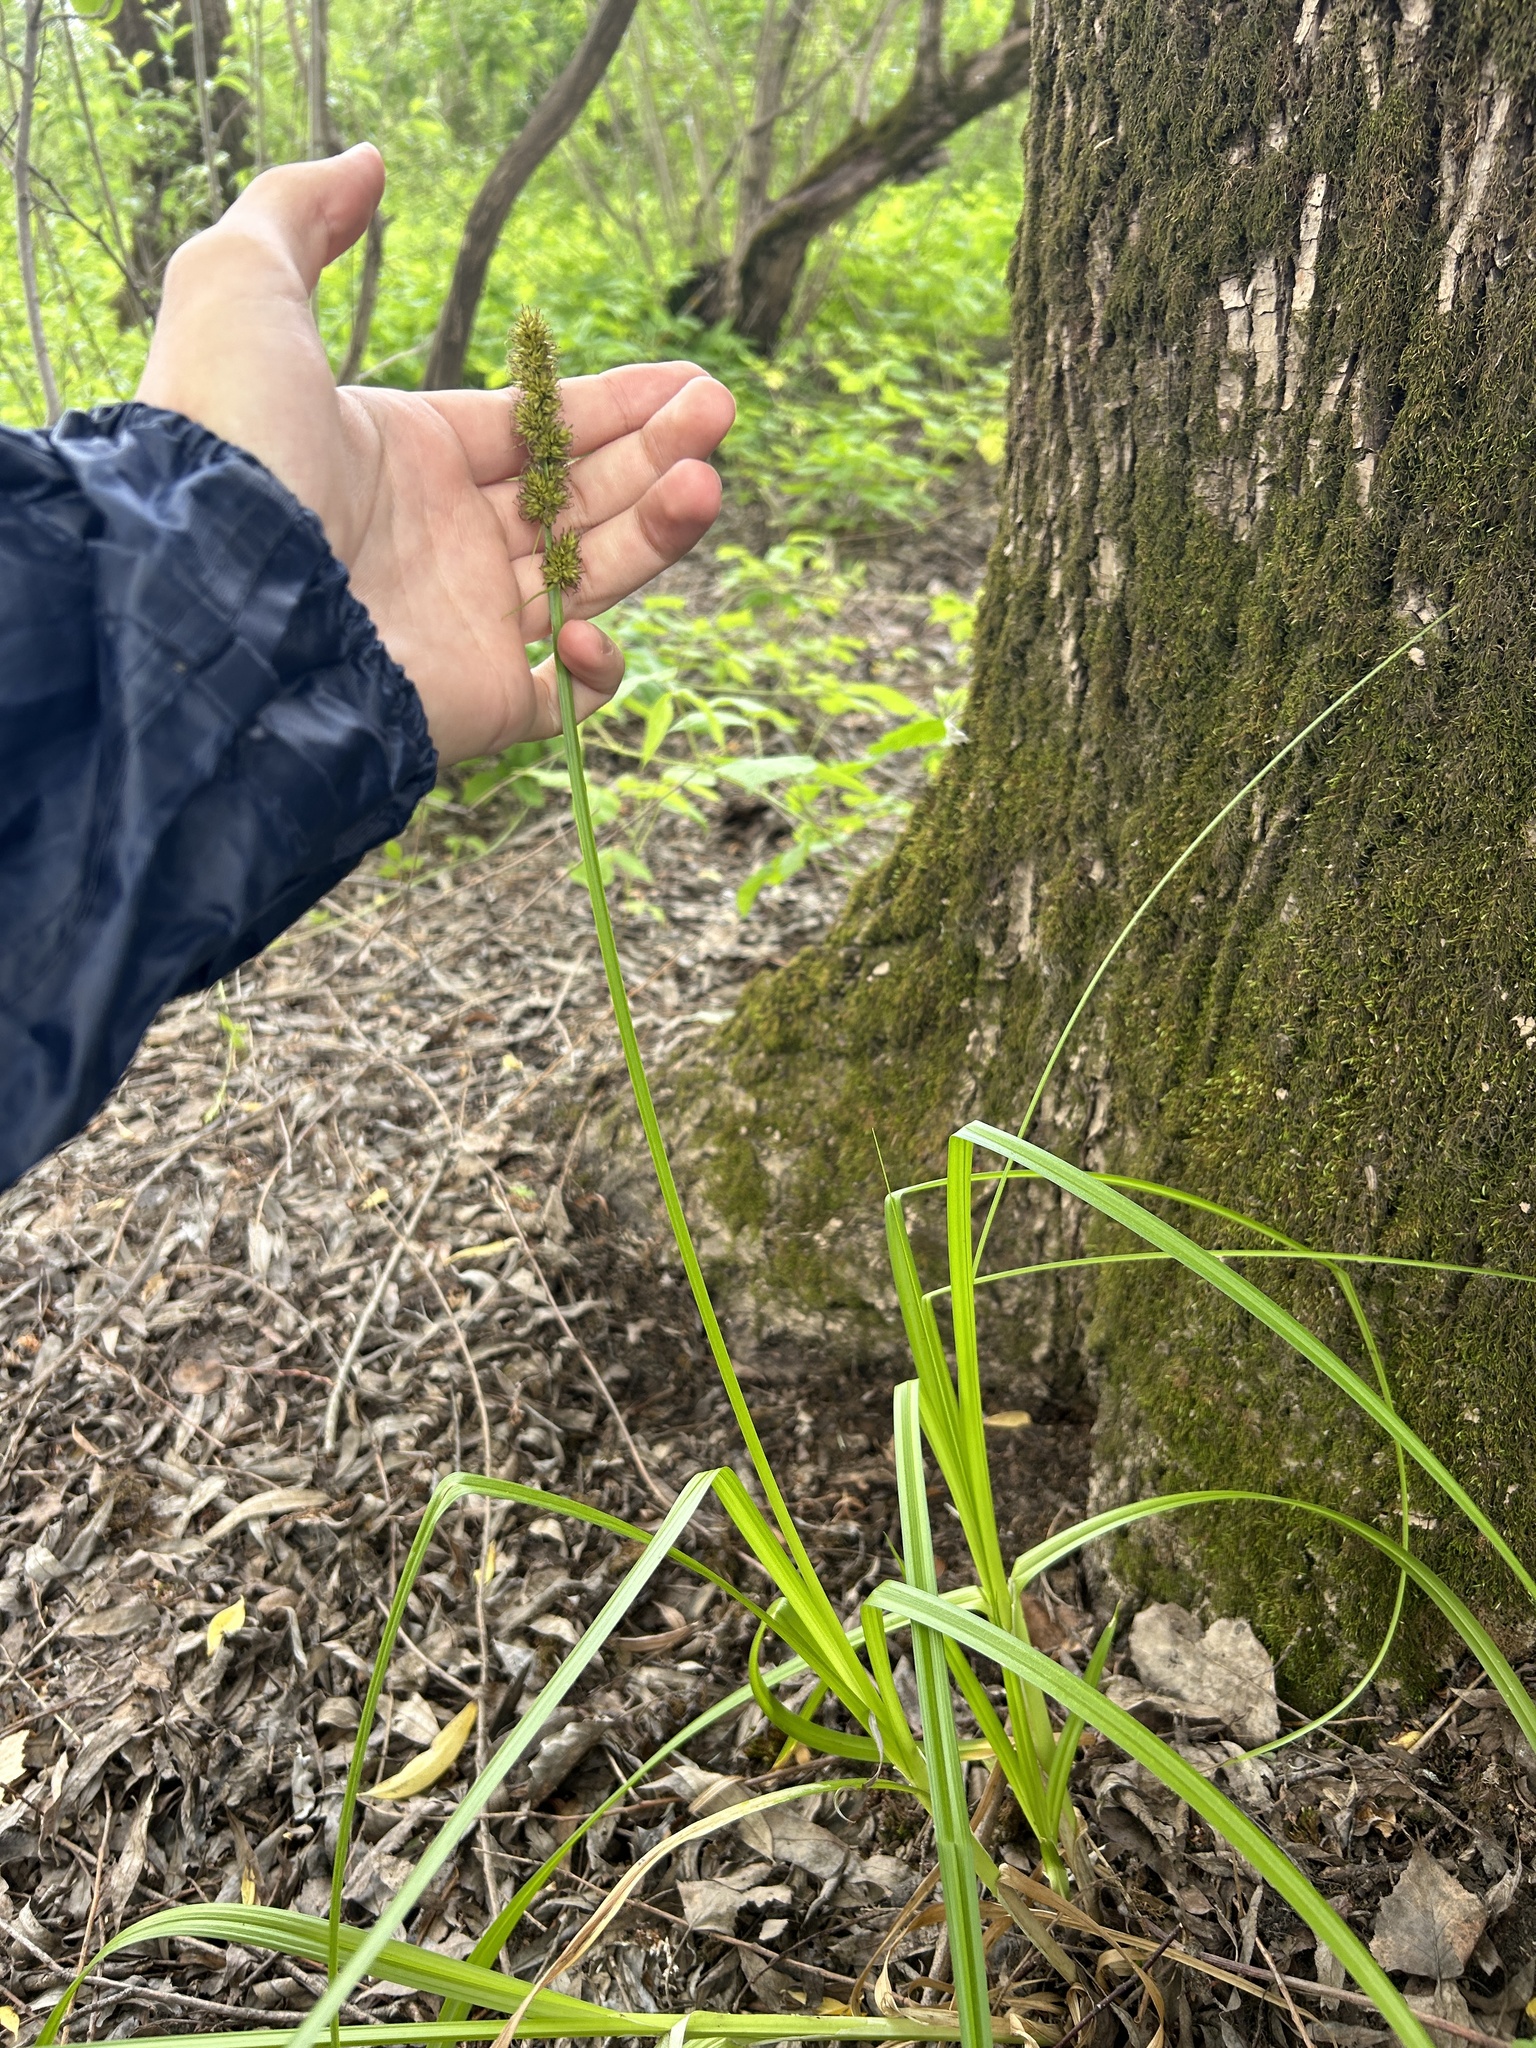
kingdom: Plantae
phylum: Tracheophyta
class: Liliopsida
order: Poales
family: Cyperaceae
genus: Carex
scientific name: Carex vulpina
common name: True fox-sedge
